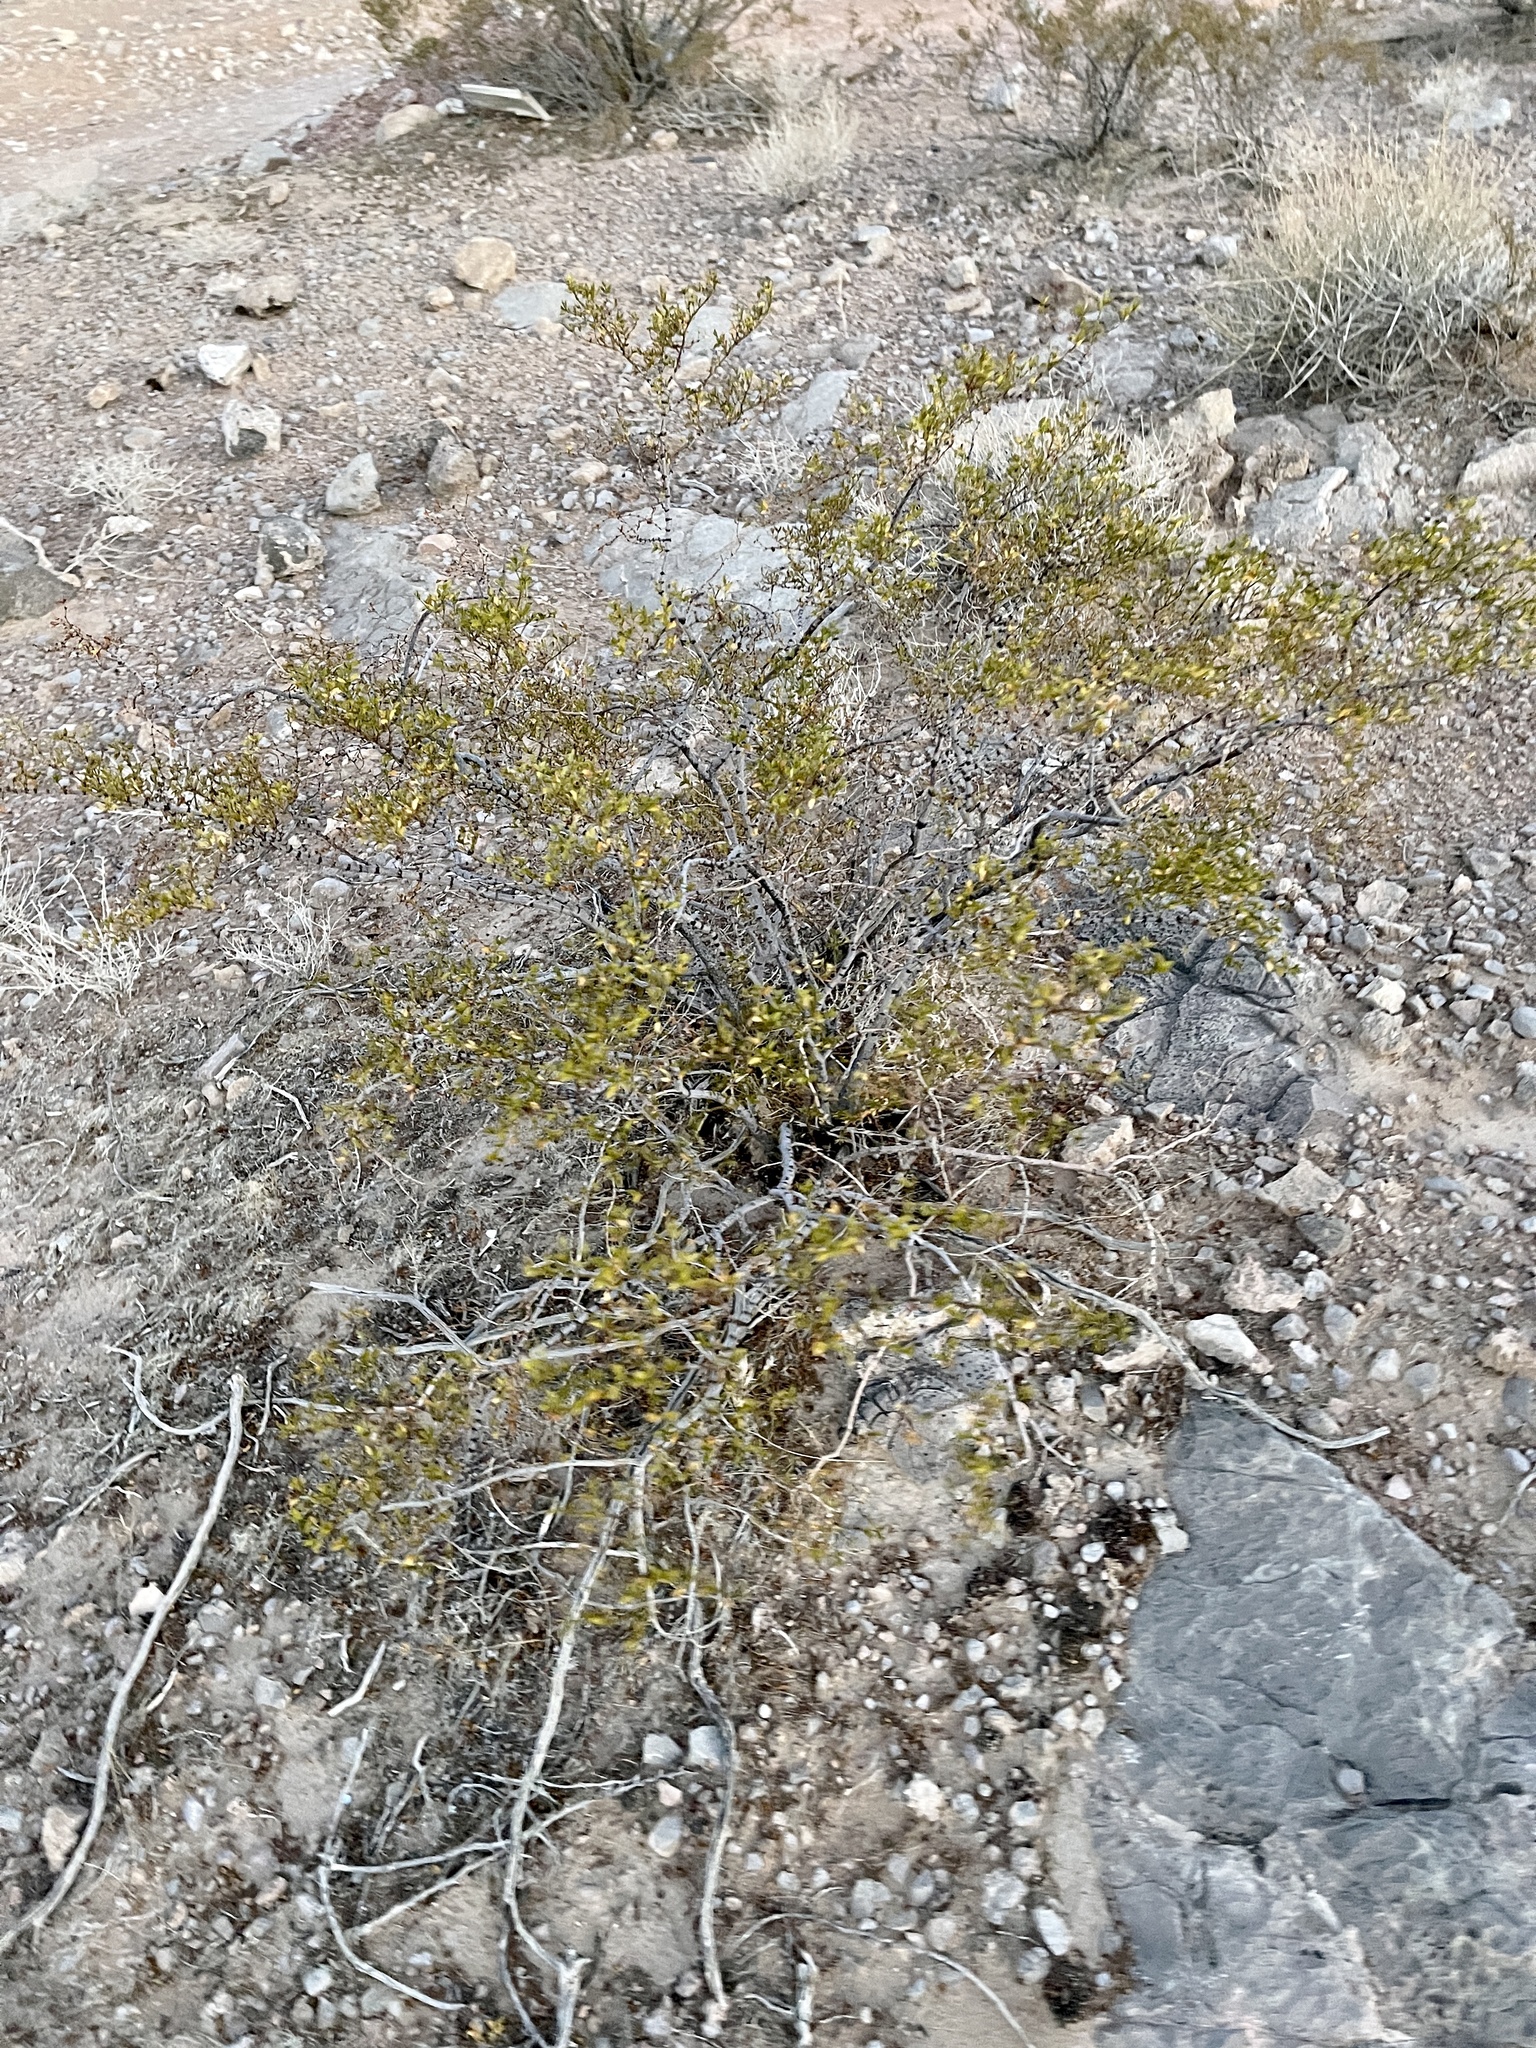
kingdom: Plantae
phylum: Tracheophyta
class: Magnoliopsida
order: Zygophyllales
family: Zygophyllaceae
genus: Larrea
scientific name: Larrea tridentata
